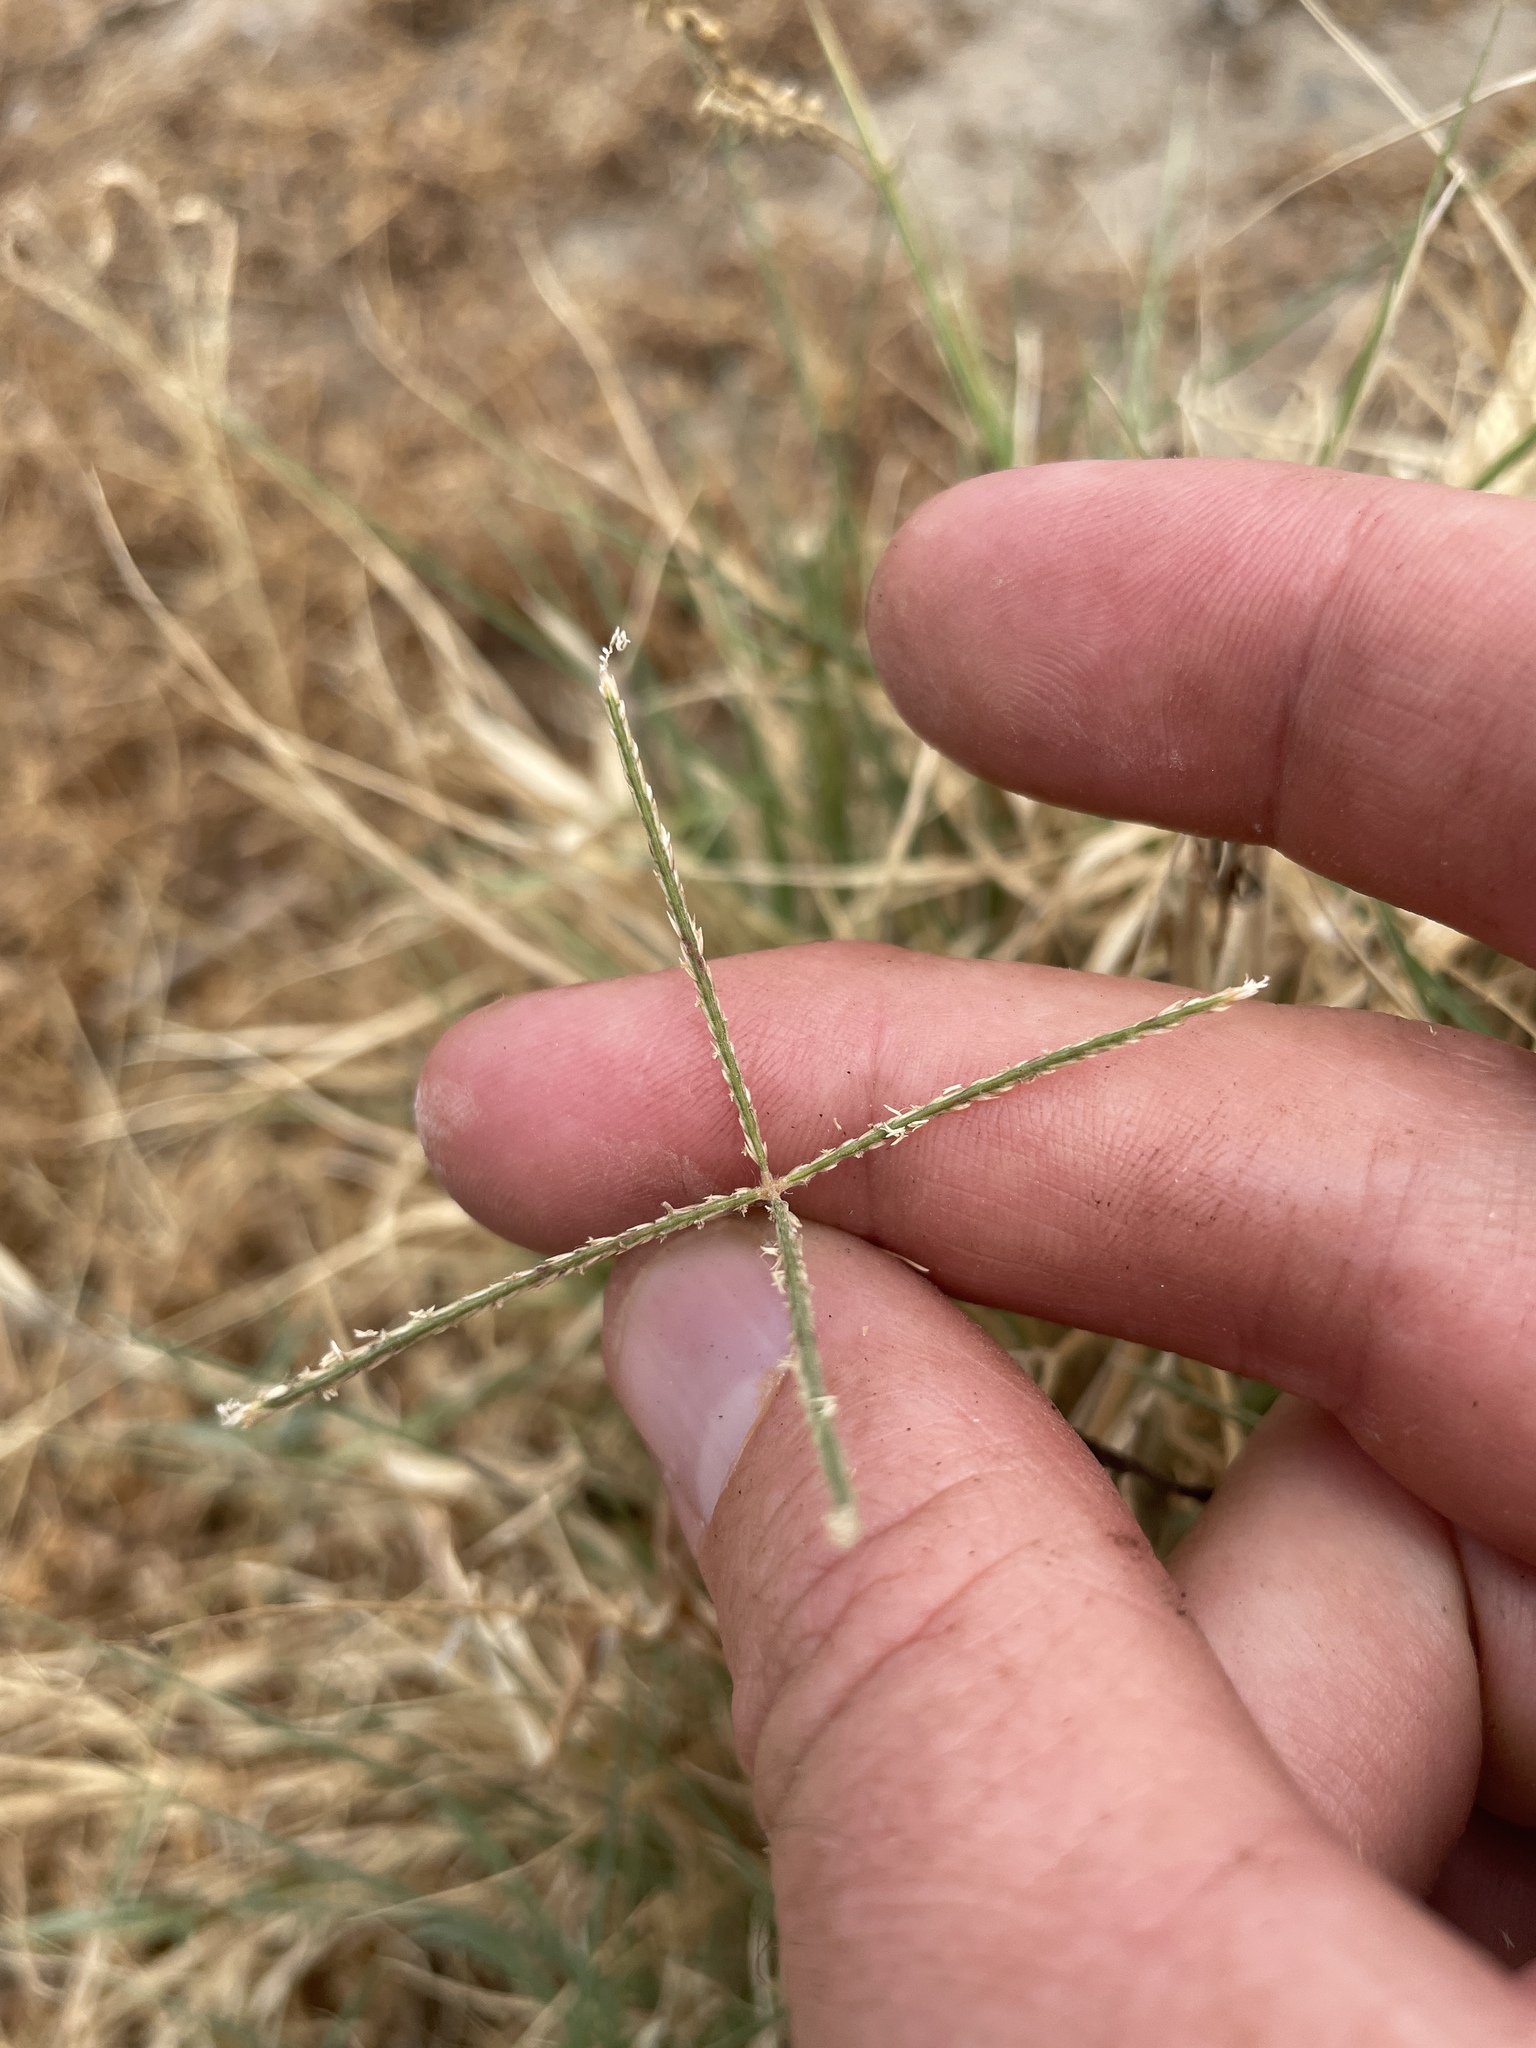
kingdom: Plantae
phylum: Tracheophyta
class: Liliopsida
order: Poales
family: Poaceae
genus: Cynodon
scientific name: Cynodon dactylon
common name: Bermuda grass
